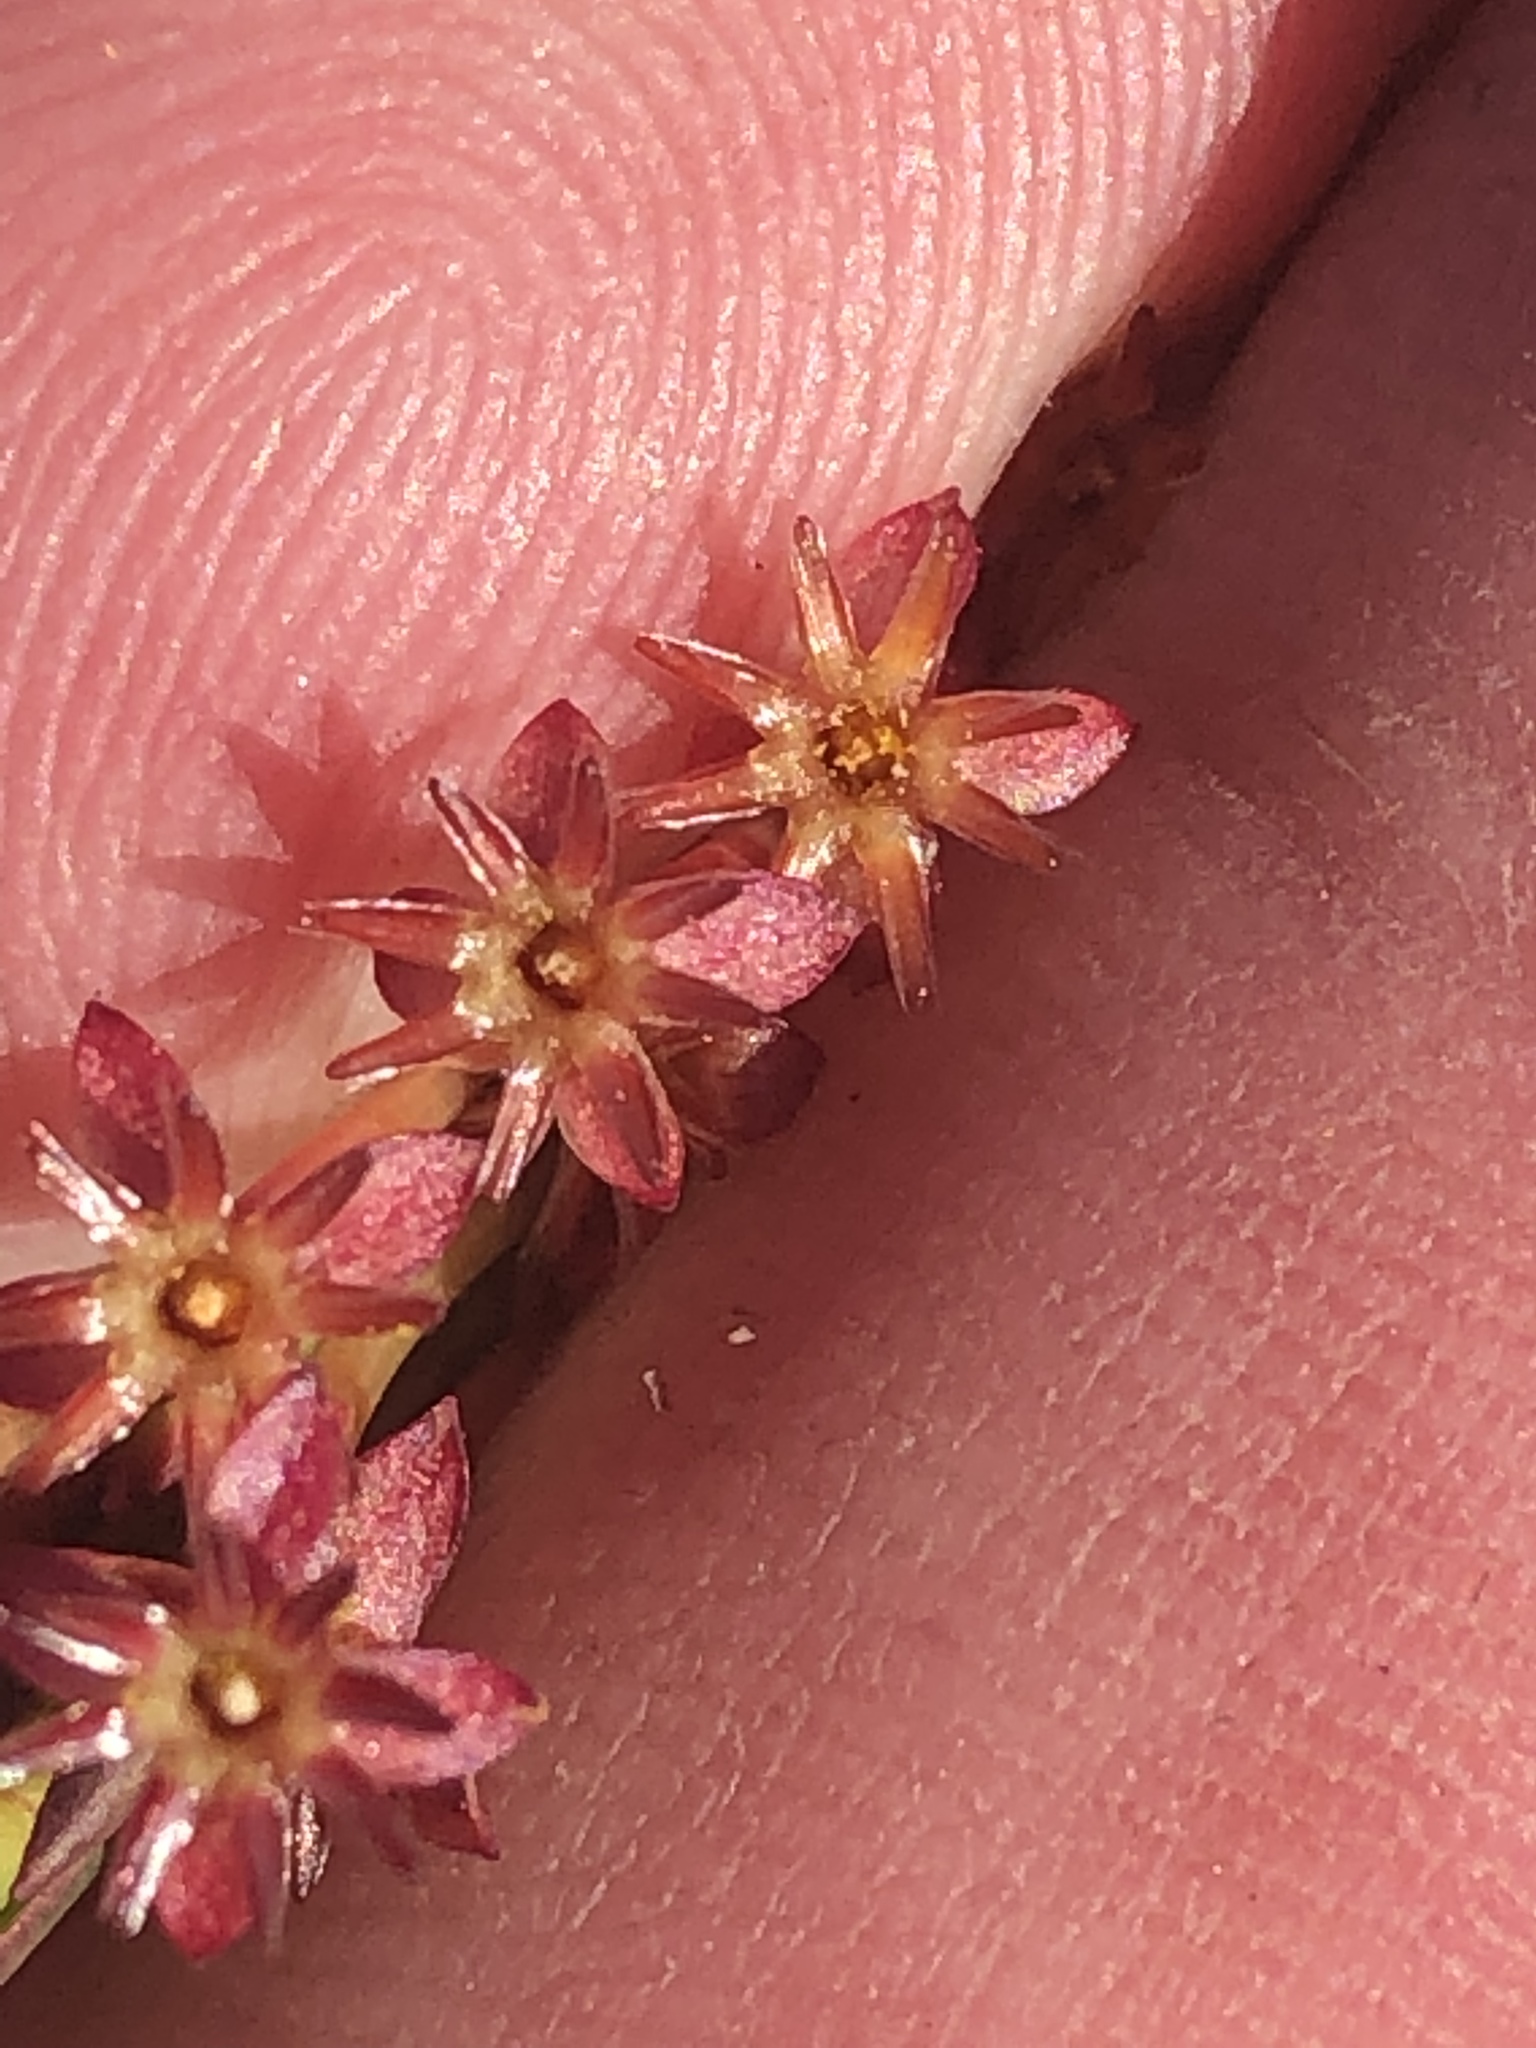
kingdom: Plantae
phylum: Tracheophyta
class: Magnoliopsida
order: Malvales
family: Thymelaeaceae
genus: Struthiola
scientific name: Struthiola macowanii
